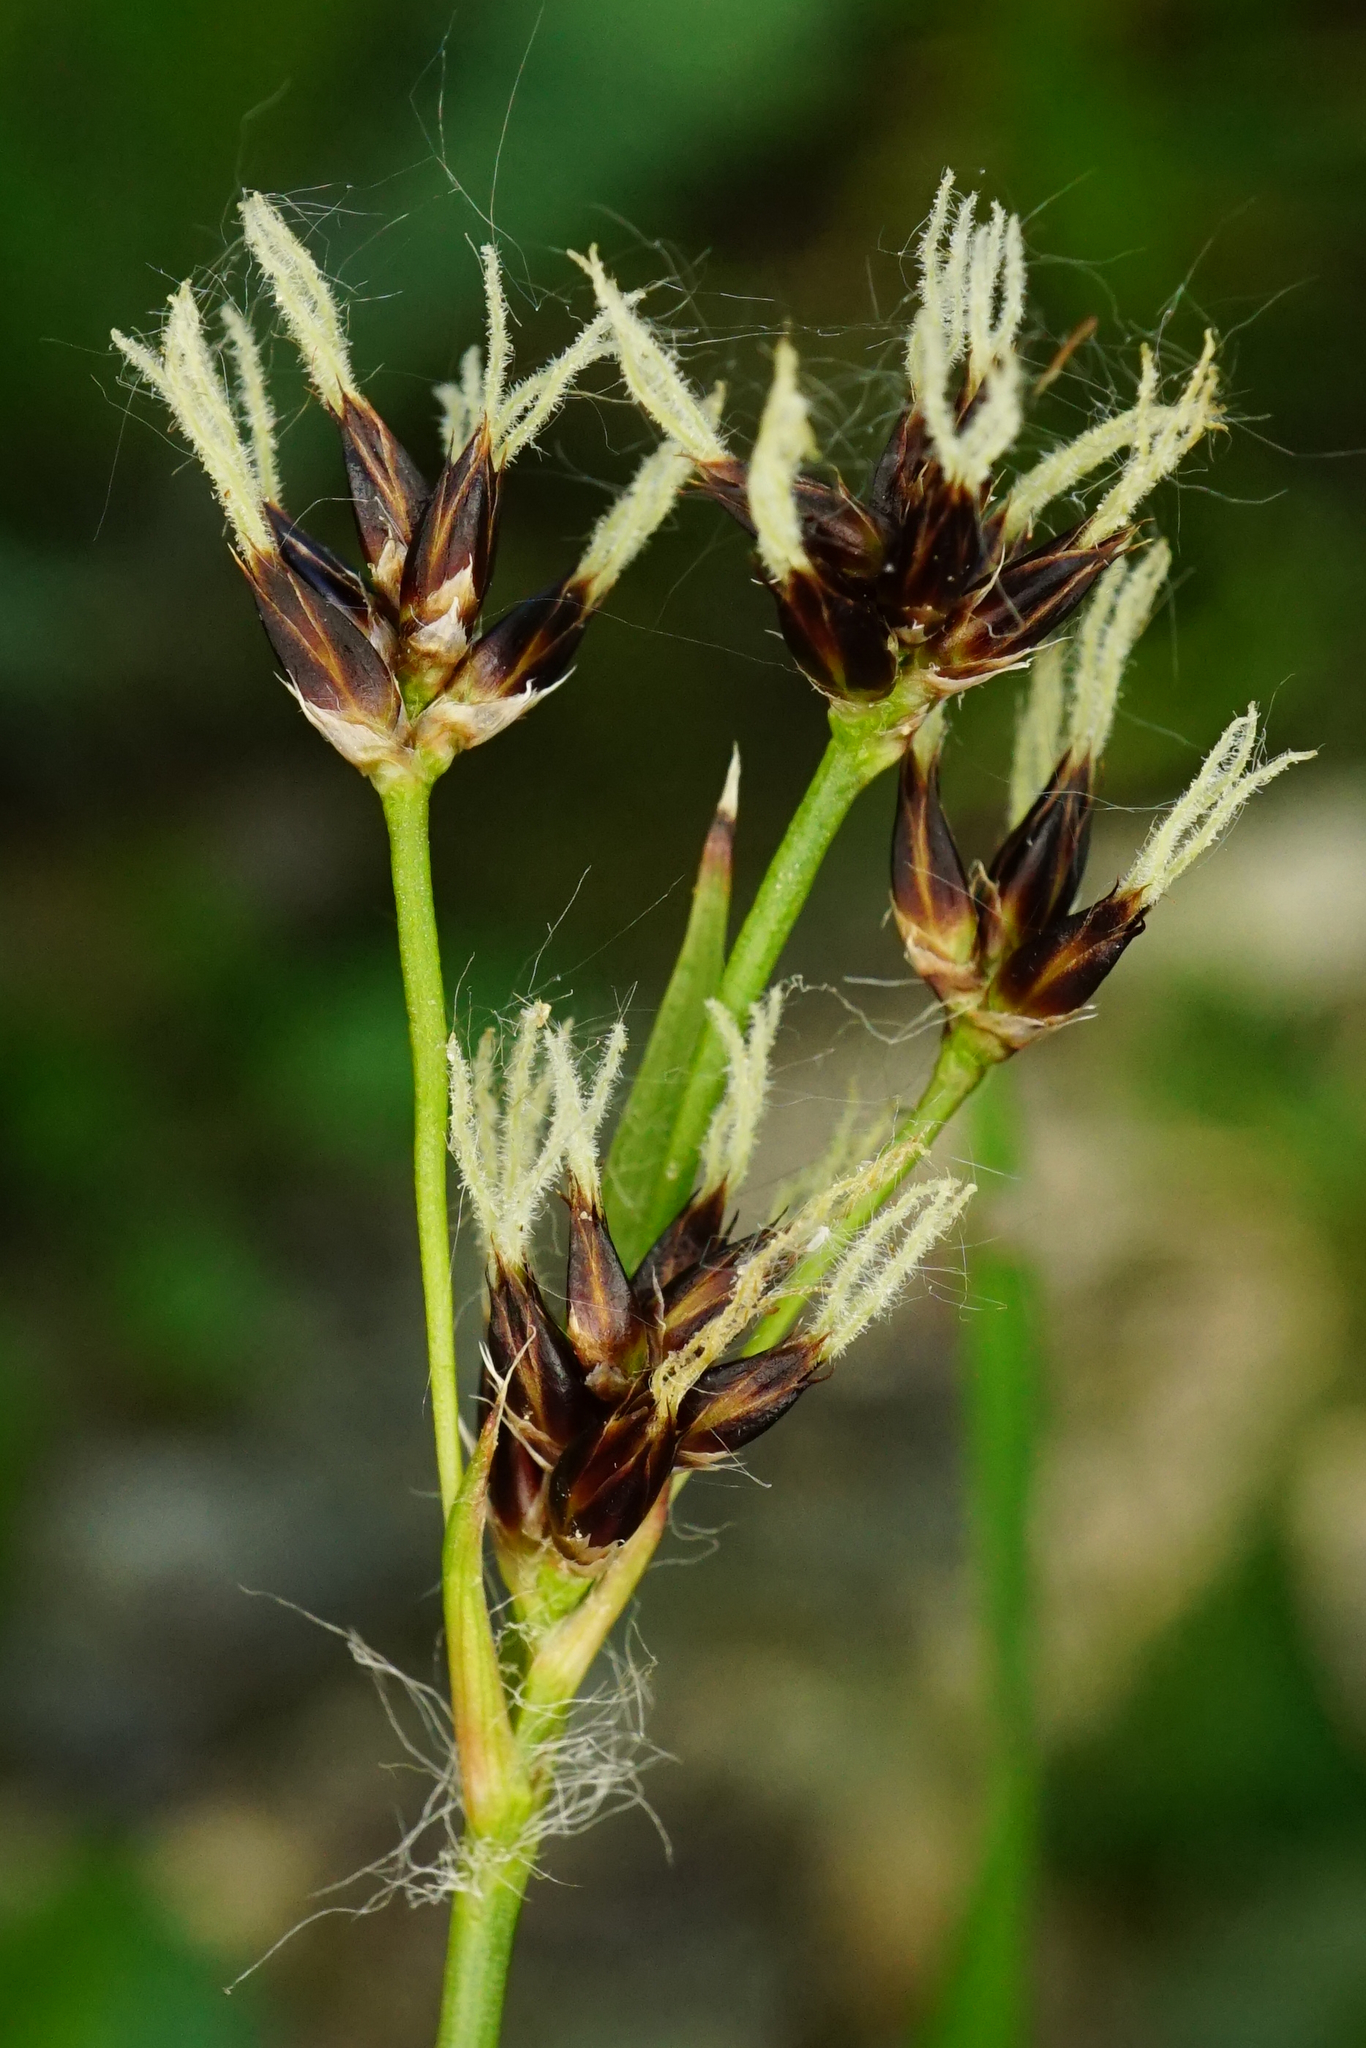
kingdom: Plantae
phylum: Tracheophyta
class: Liliopsida
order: Poales
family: Juncaceae
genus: Luzula
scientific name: Luzula campestris
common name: Field wood-rush
